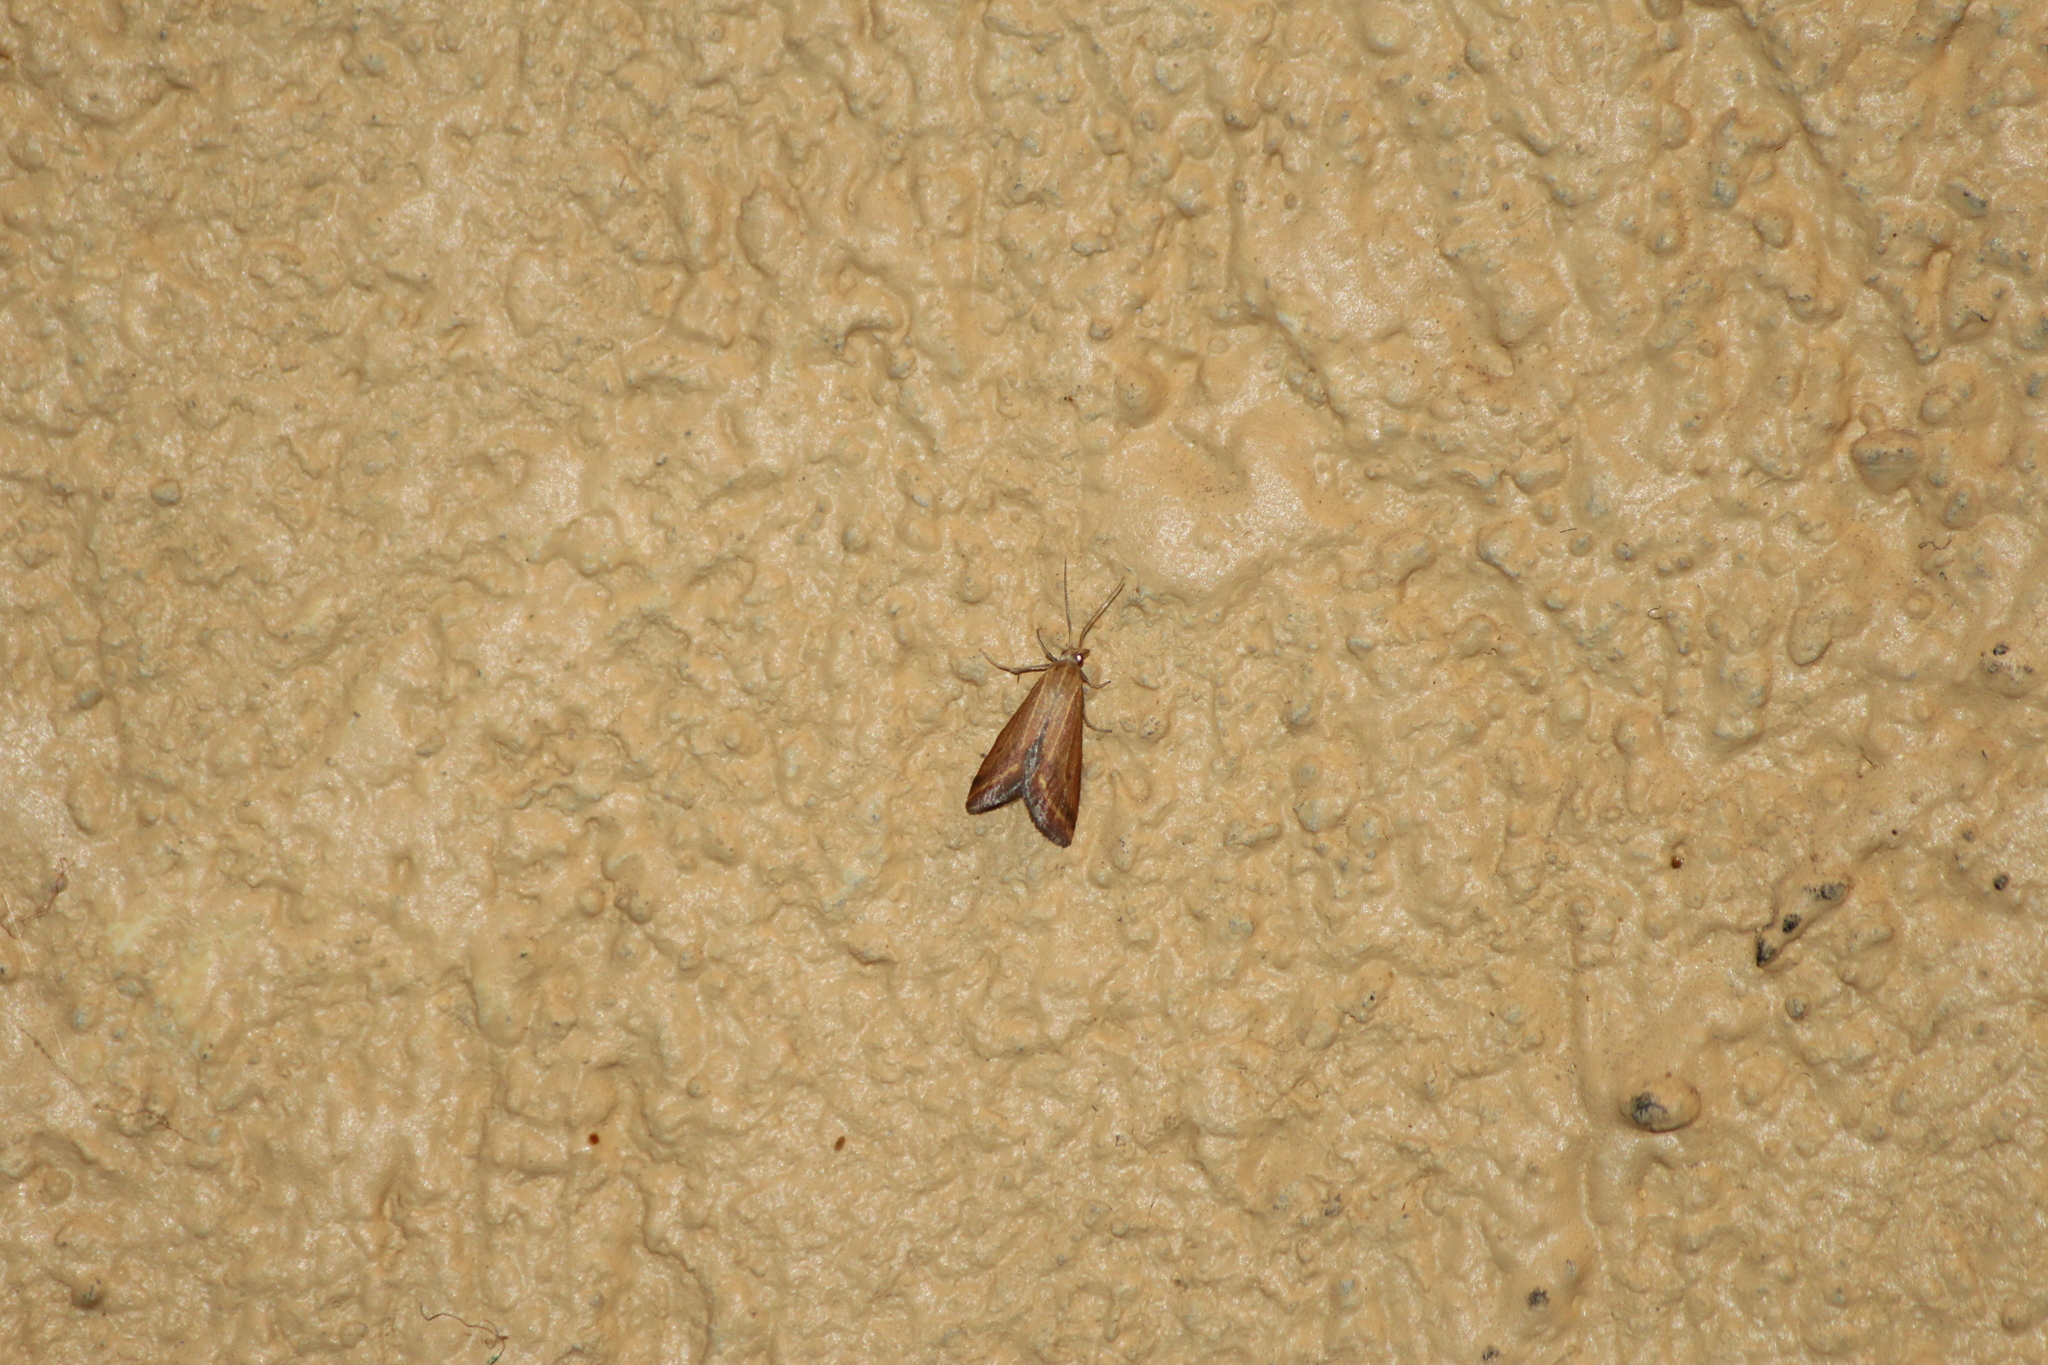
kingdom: Animalia
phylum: Arthropoda
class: Insecta
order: Lepidoptera
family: Crambidae
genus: Microtheoris
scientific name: Microtheoris ophionalis
